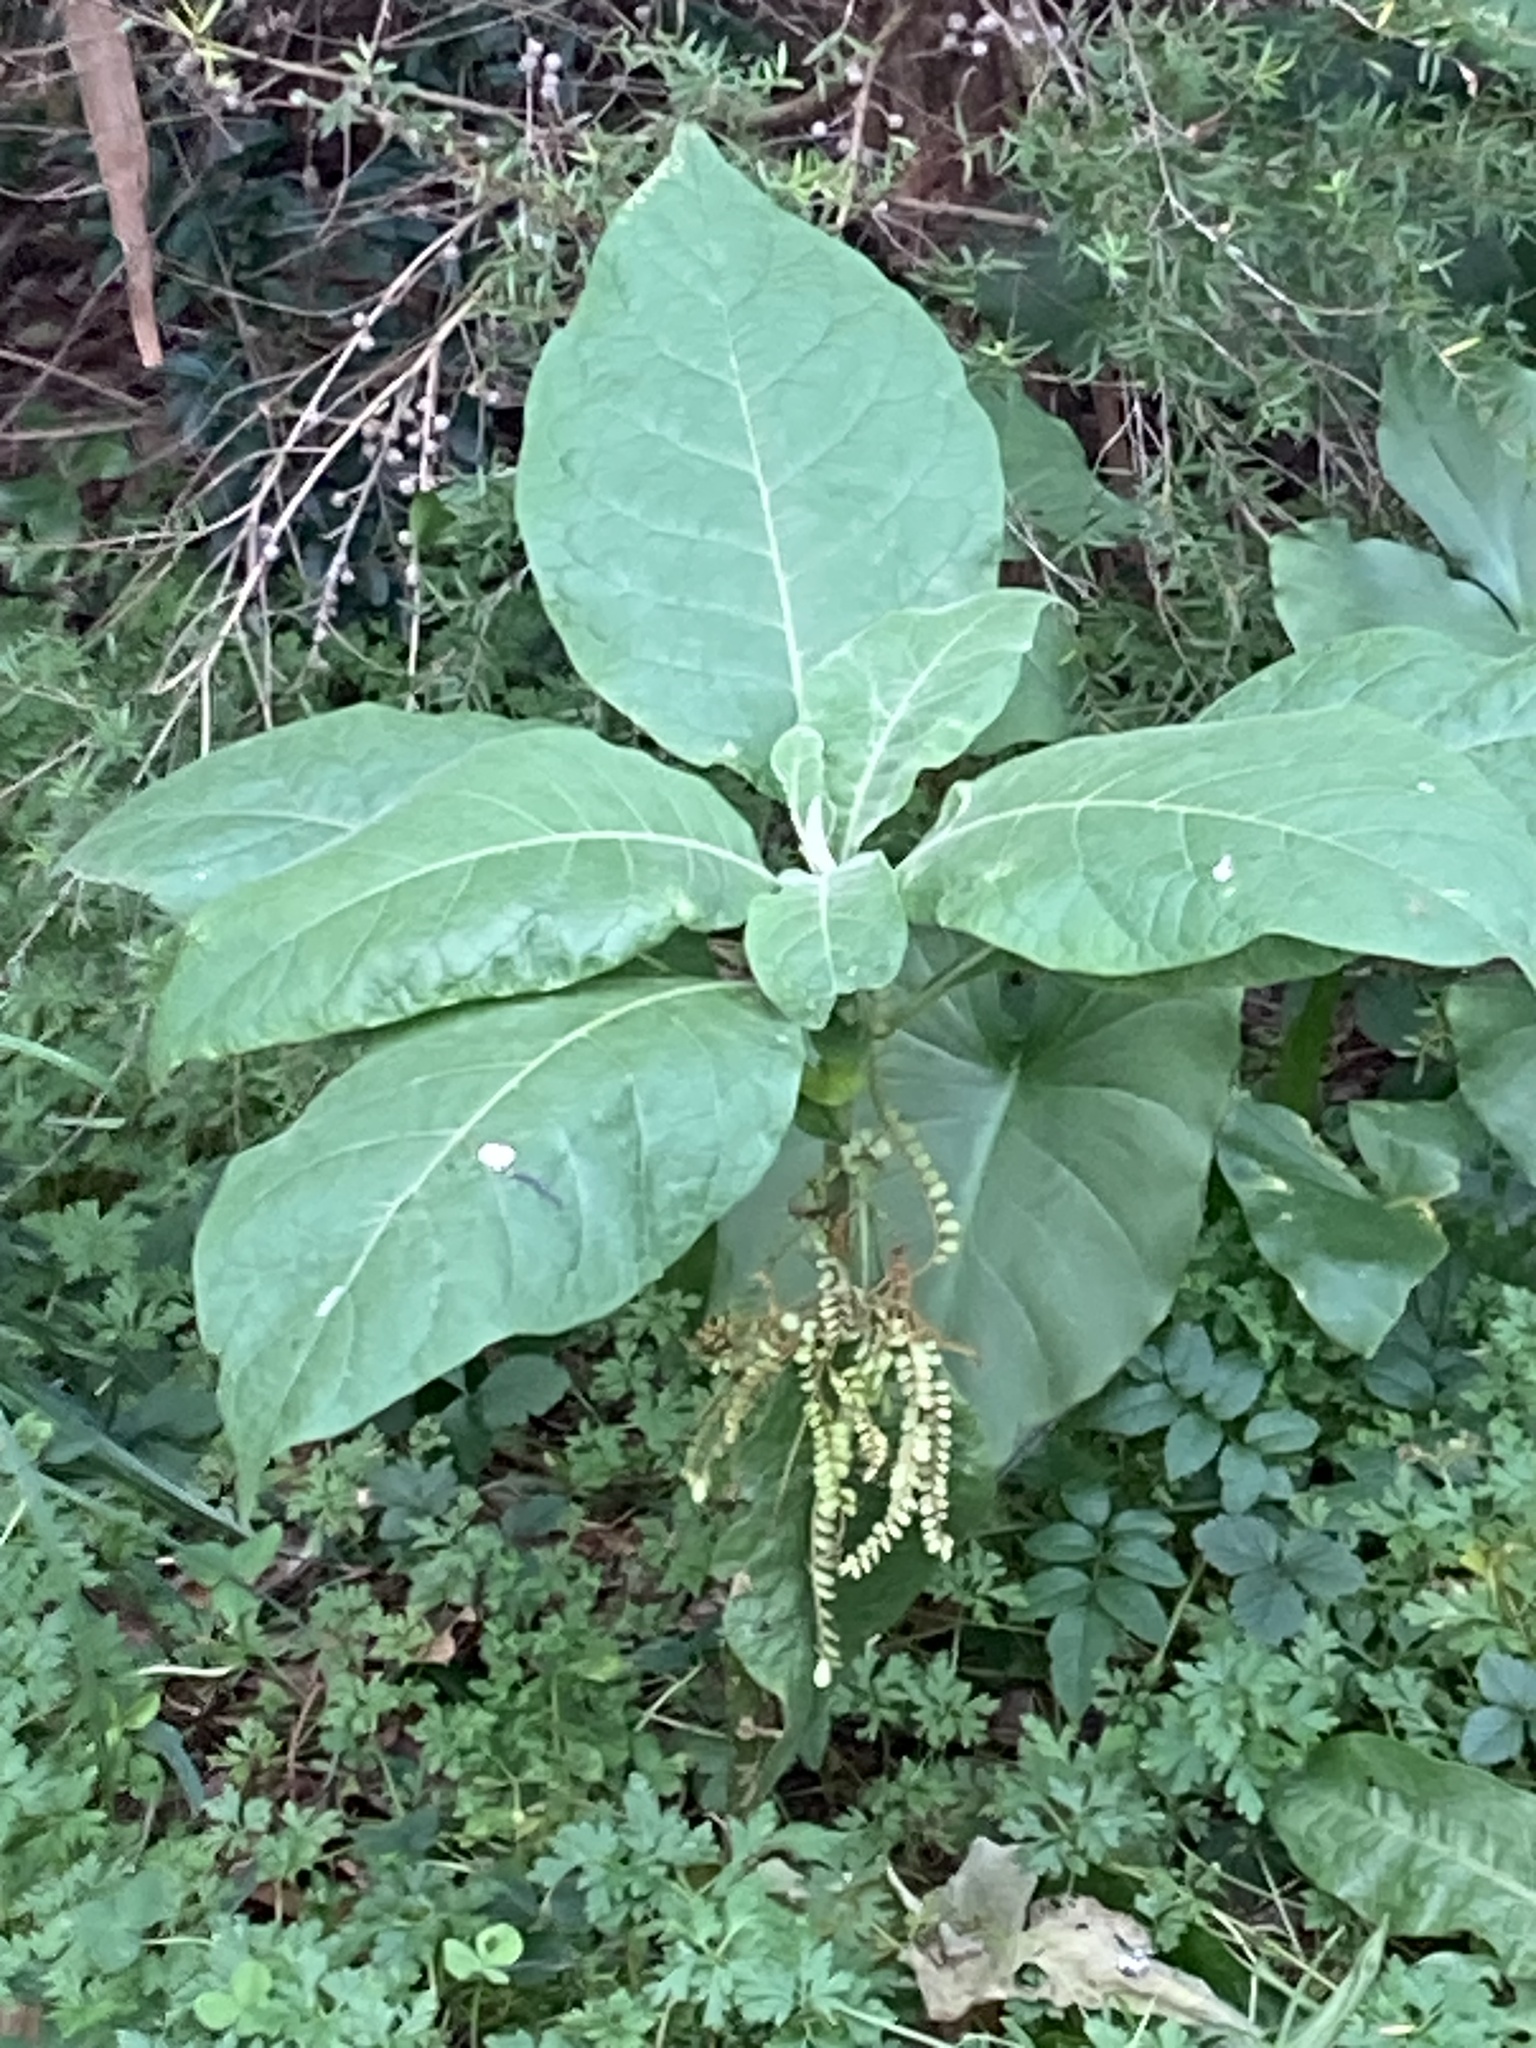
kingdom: Plantae
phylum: Tracheophyta
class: Magnoliopsida
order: Solanales
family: Solanaceae
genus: Solanum
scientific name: Solanum mauritianum
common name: Earleaf nightshade
